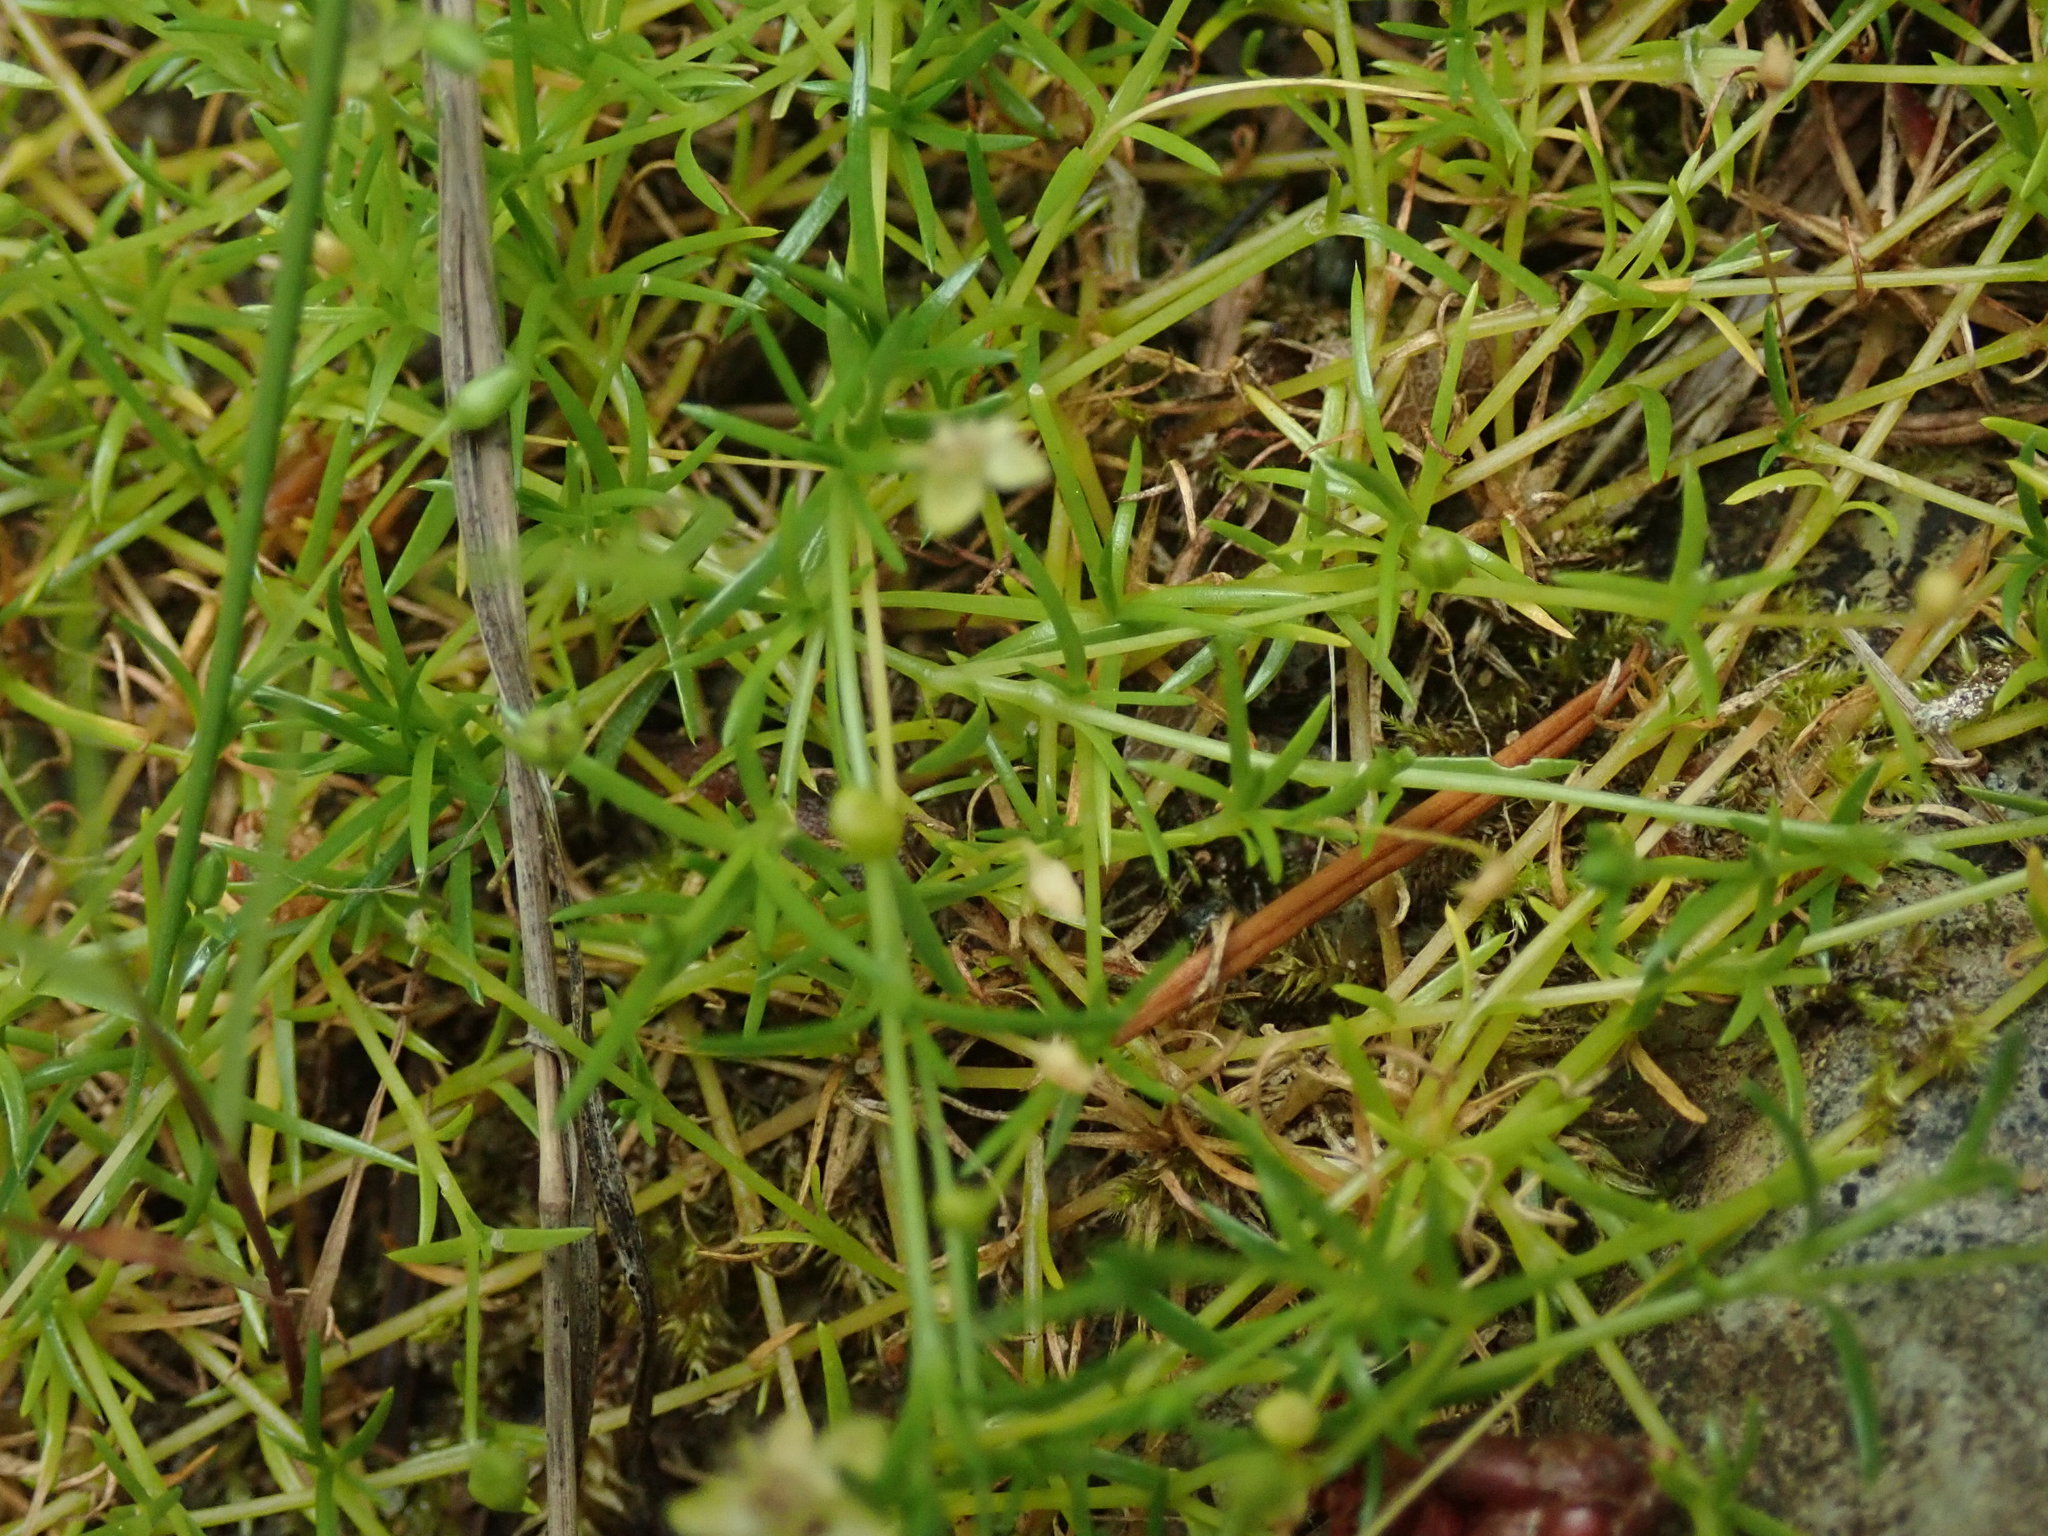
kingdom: Plantae
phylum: Tracheophyta
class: Magnoliopsida
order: Caryophyllales
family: Caryophyllaceae
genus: Sagina
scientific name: Sagina procumbens
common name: Procumbent pearlwort
